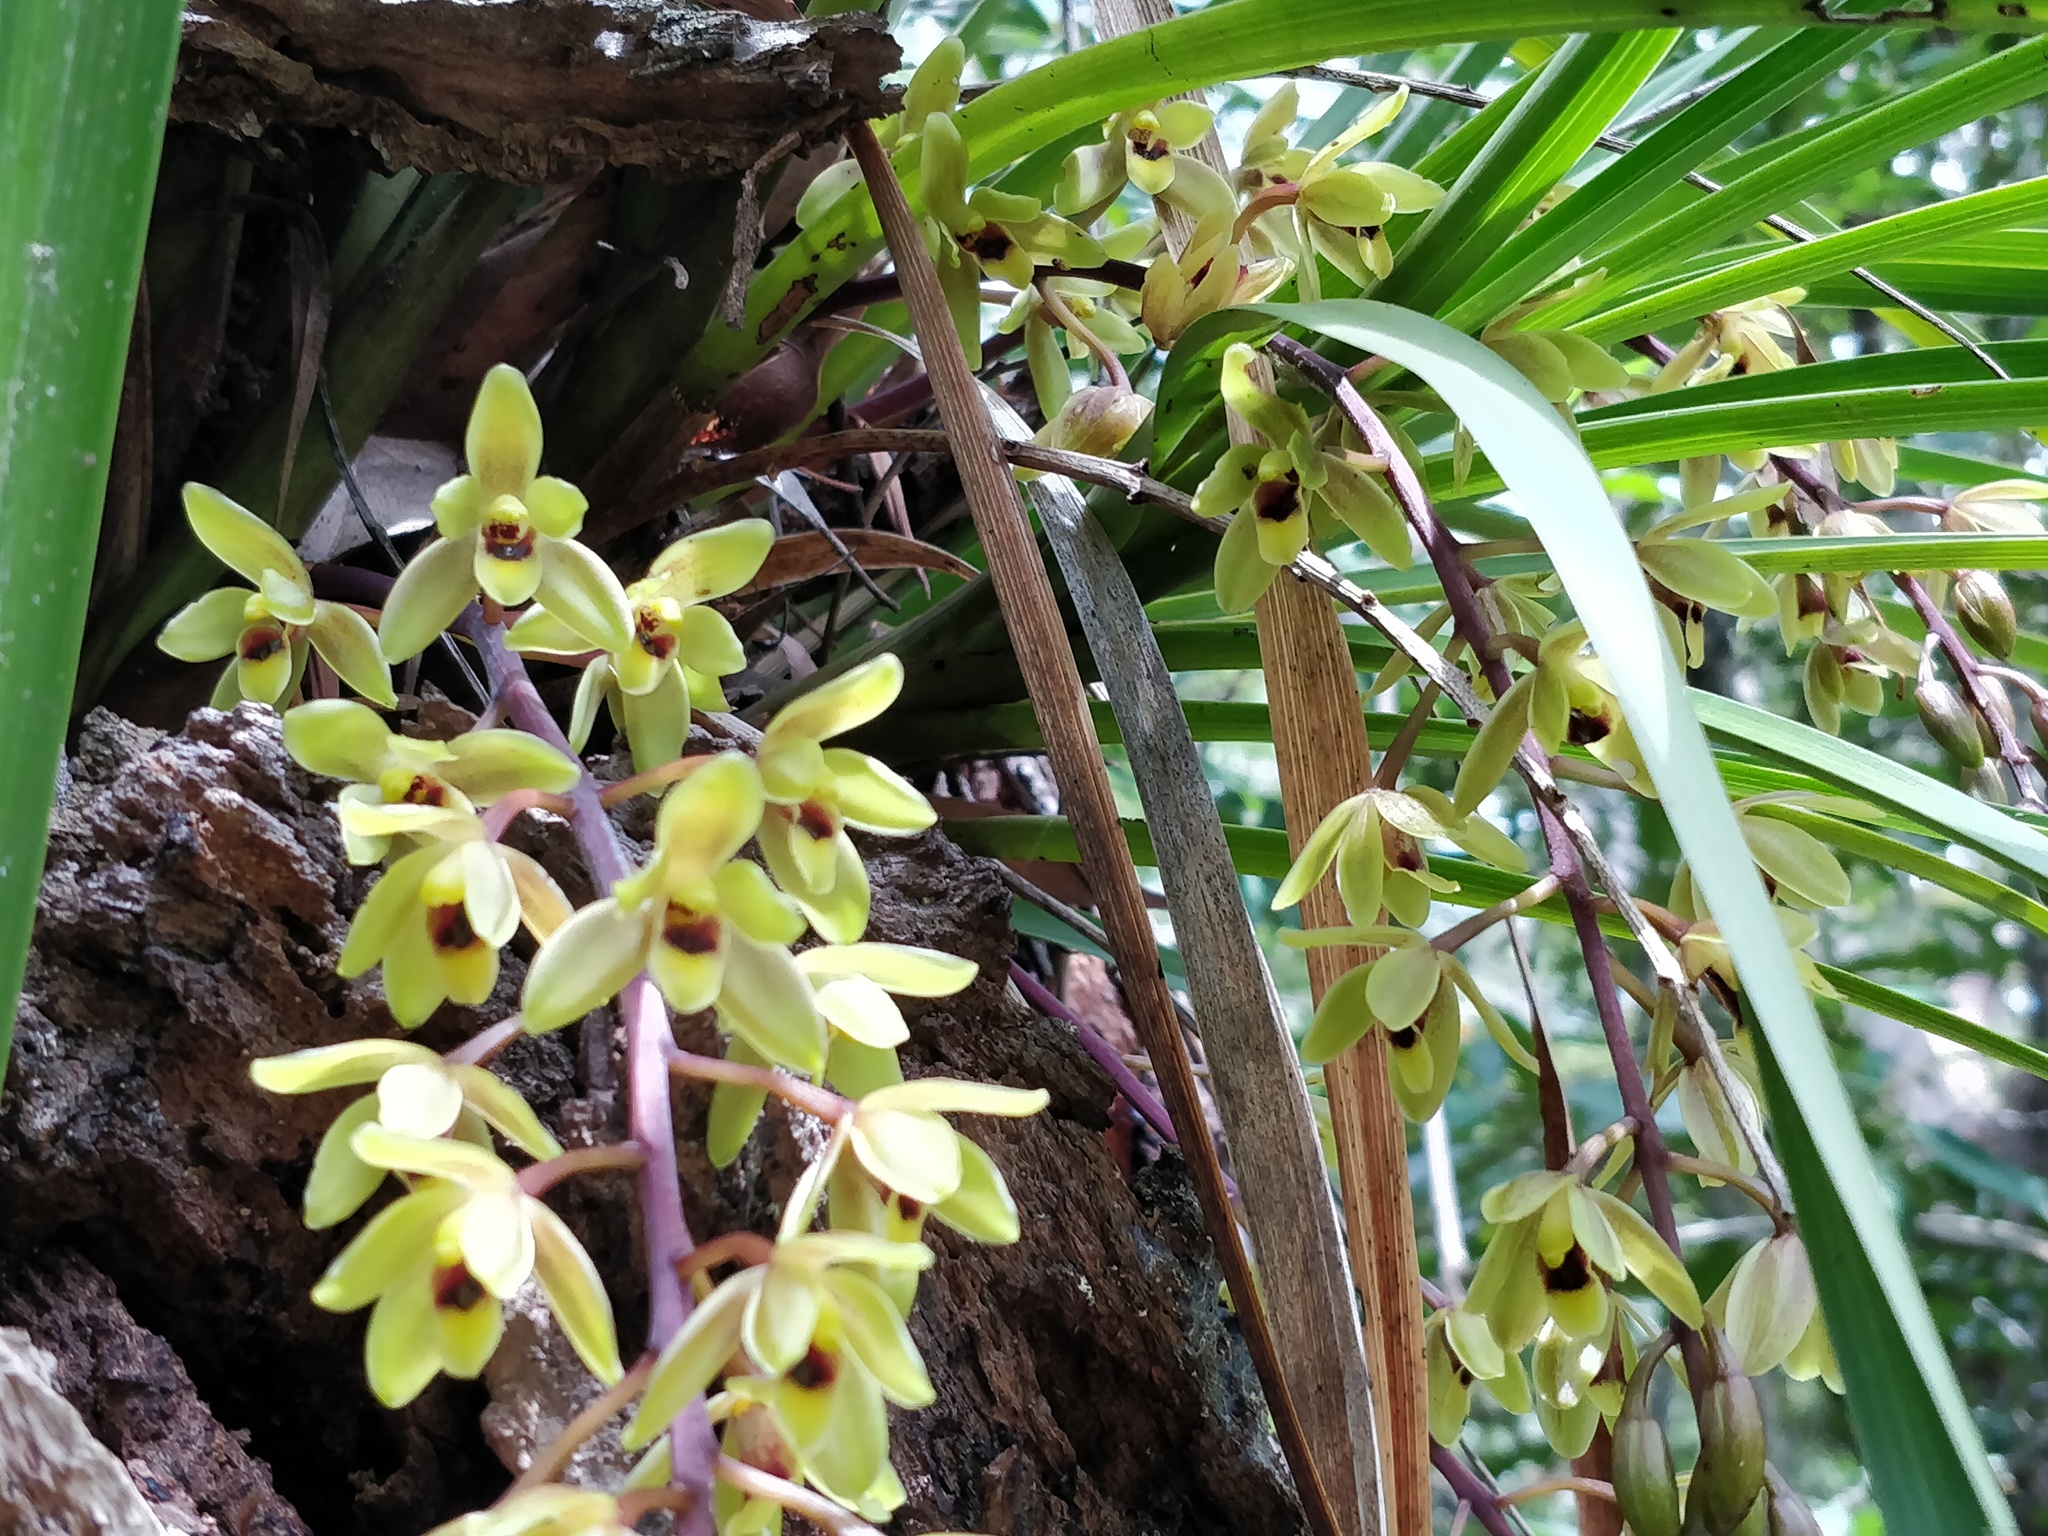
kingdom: Plantae
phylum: Tracheophyta
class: Liliopsida
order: Asparagales
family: Orchidaceae
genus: Cymbidium
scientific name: Cymbidium suave
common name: Snake orchid
